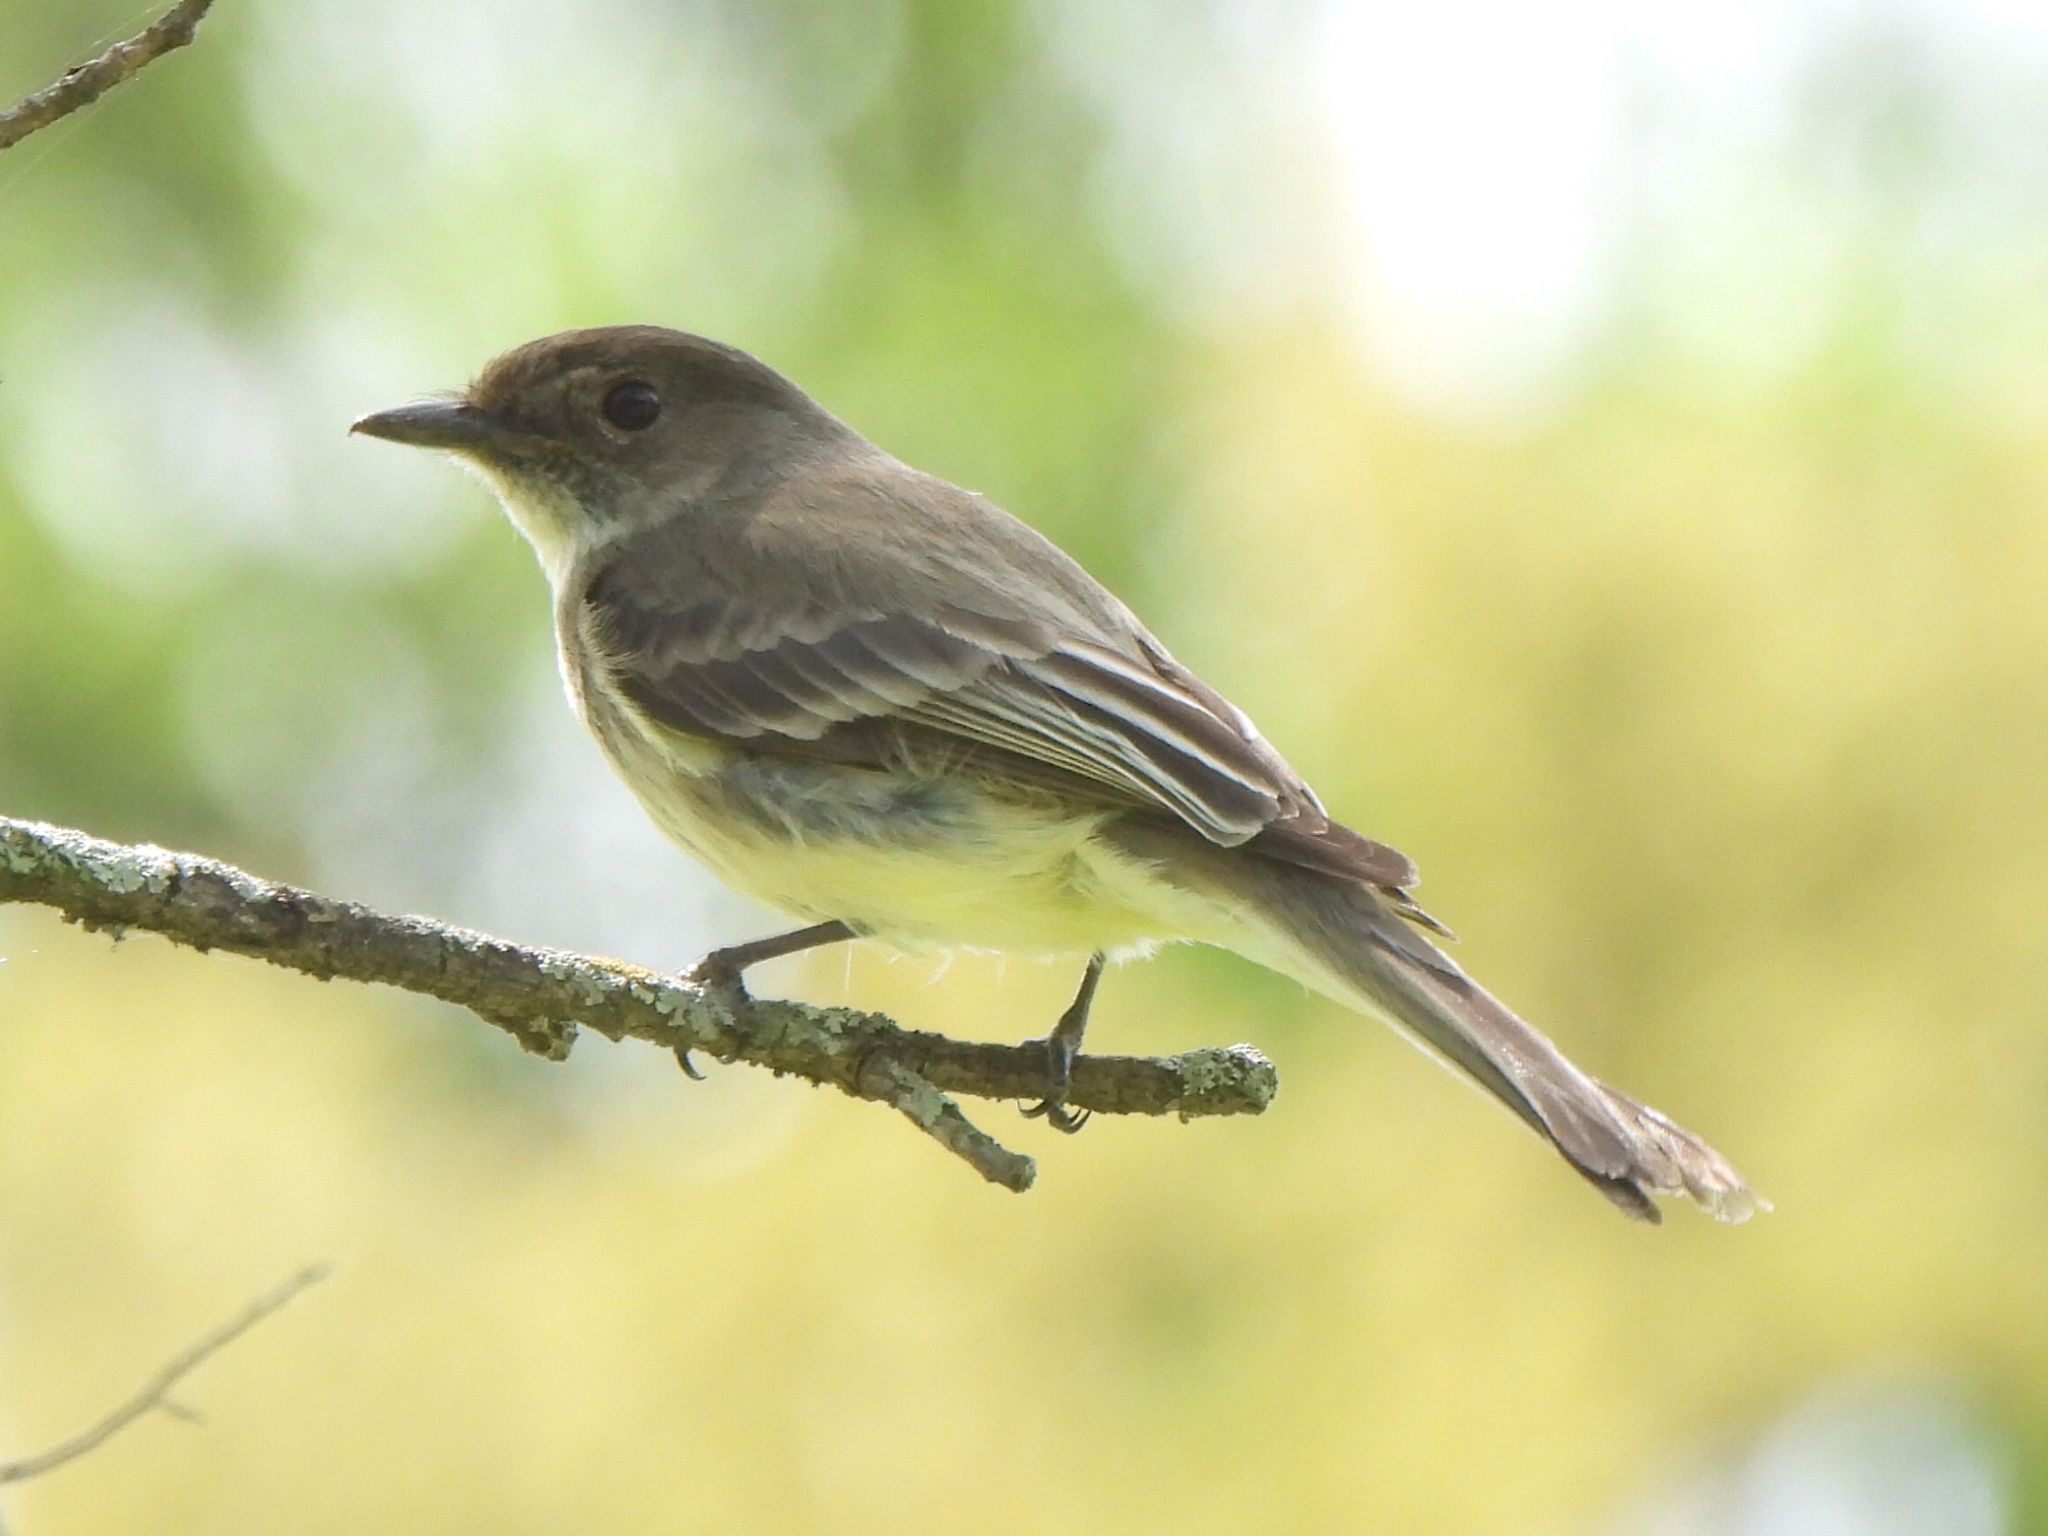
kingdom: Animalia
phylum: Chordata
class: Aves
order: Passeriformes
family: Tyrannidae
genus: Sayornis
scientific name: Sayornis phoebe
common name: Eastern phoebe
